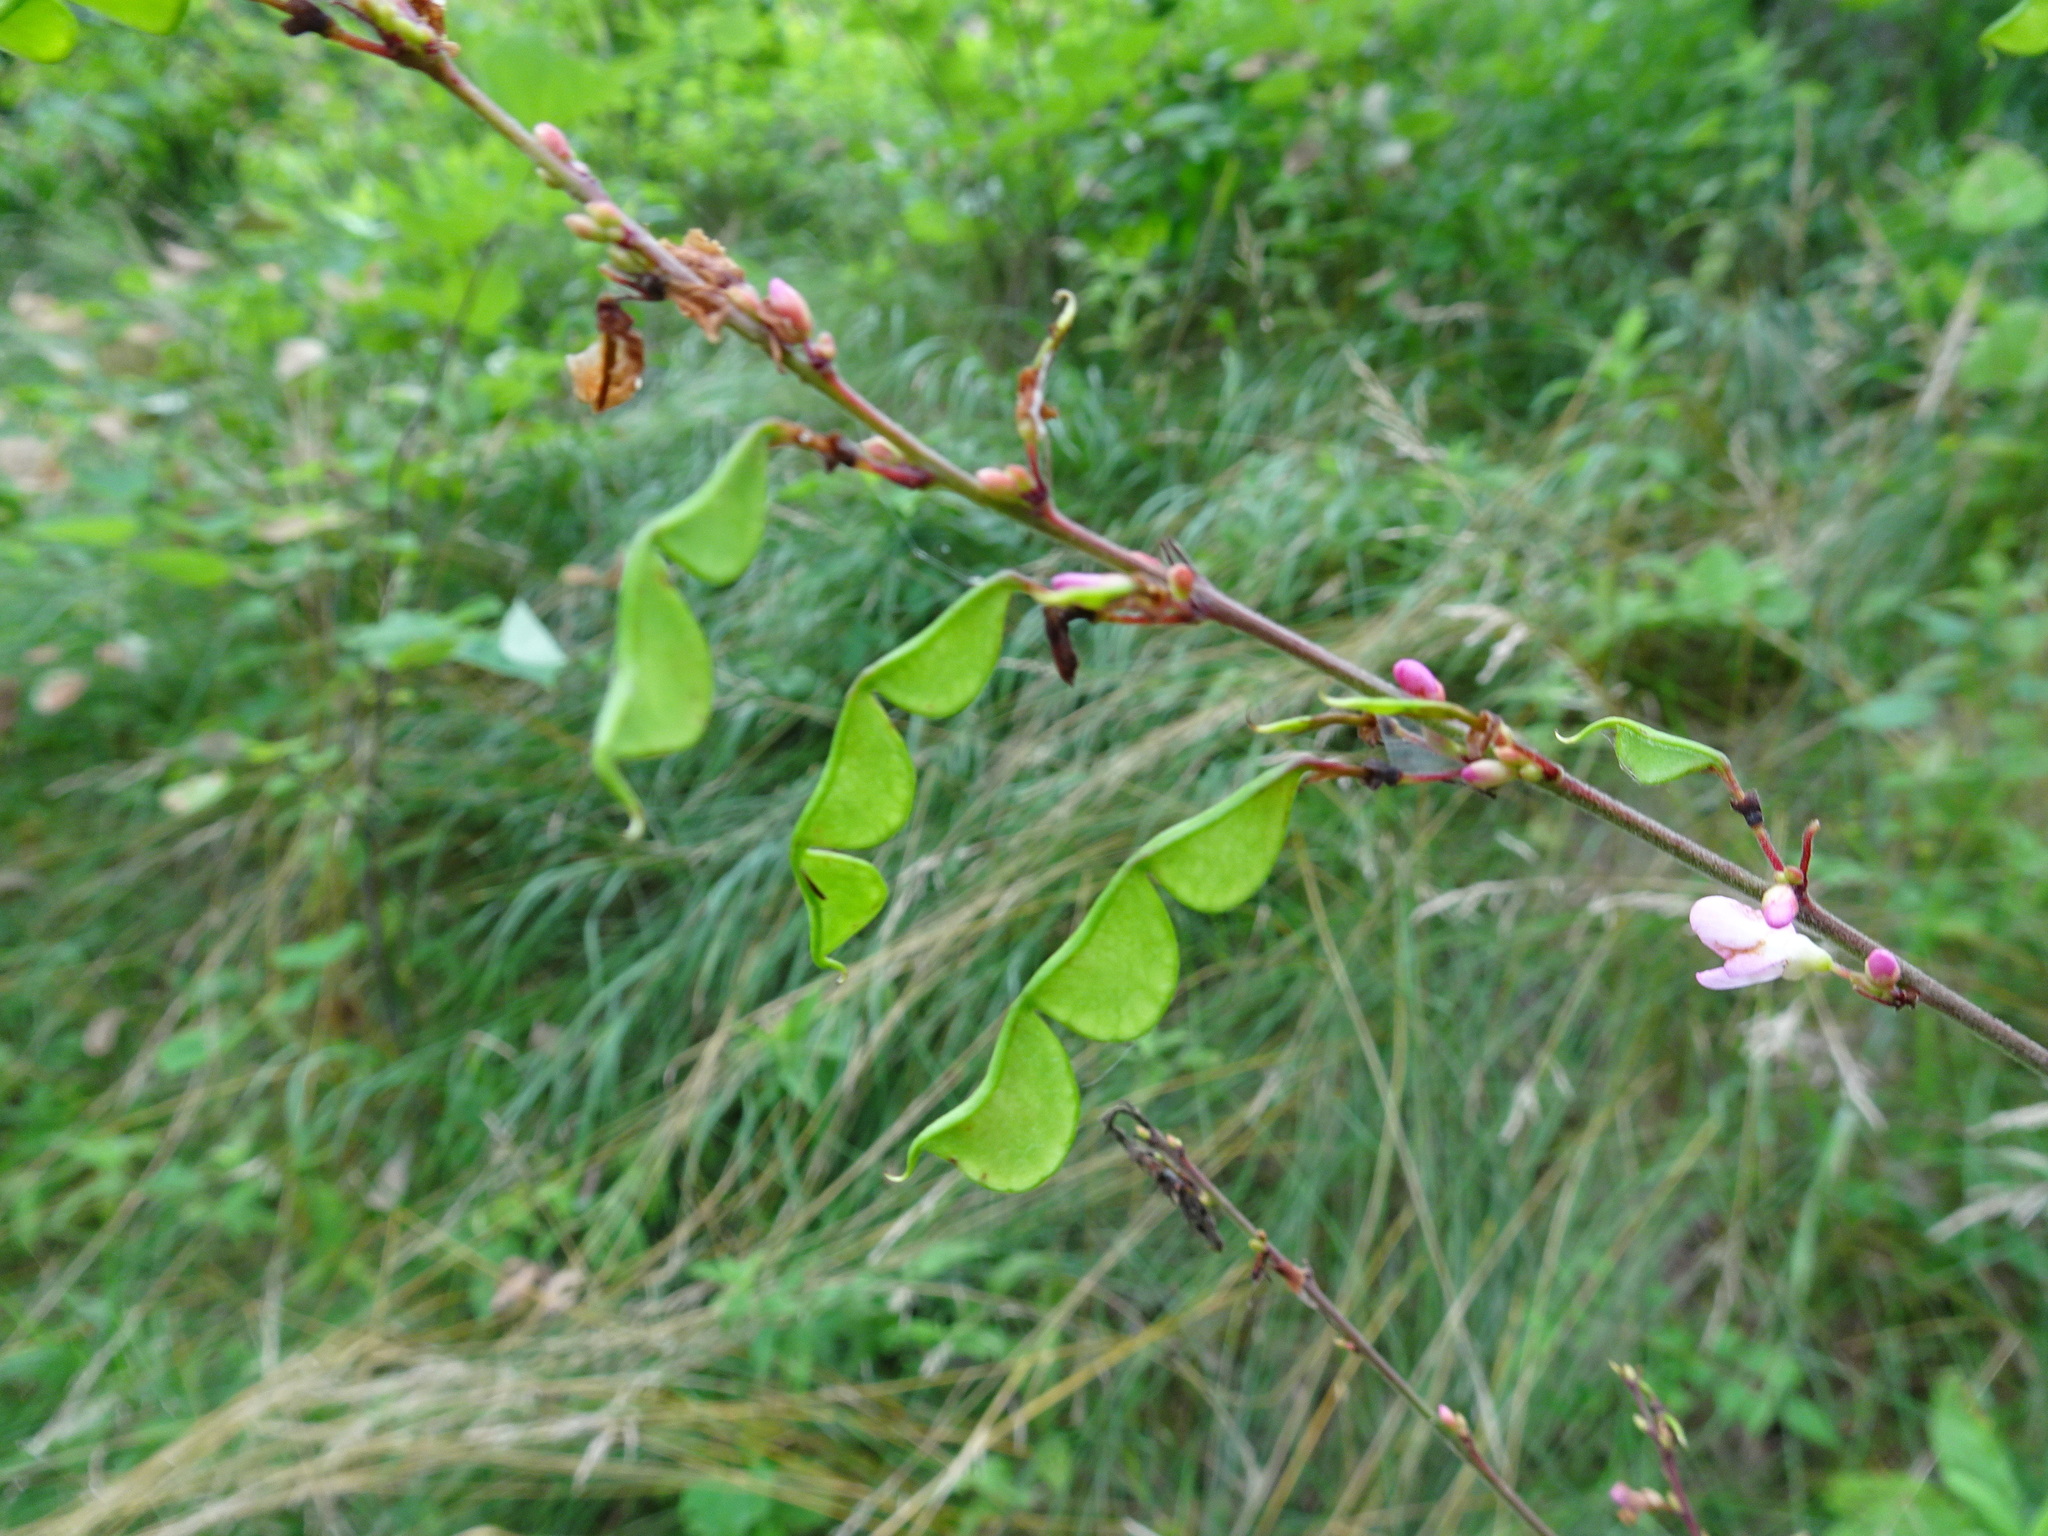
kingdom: Plantae
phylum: Tracheophyta
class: Magnoliopsida
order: Fabales
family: Fabaceae
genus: Hylodesmum
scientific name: Hylodesmum glutinosum
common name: Clustered-leaved tick-trefoil
